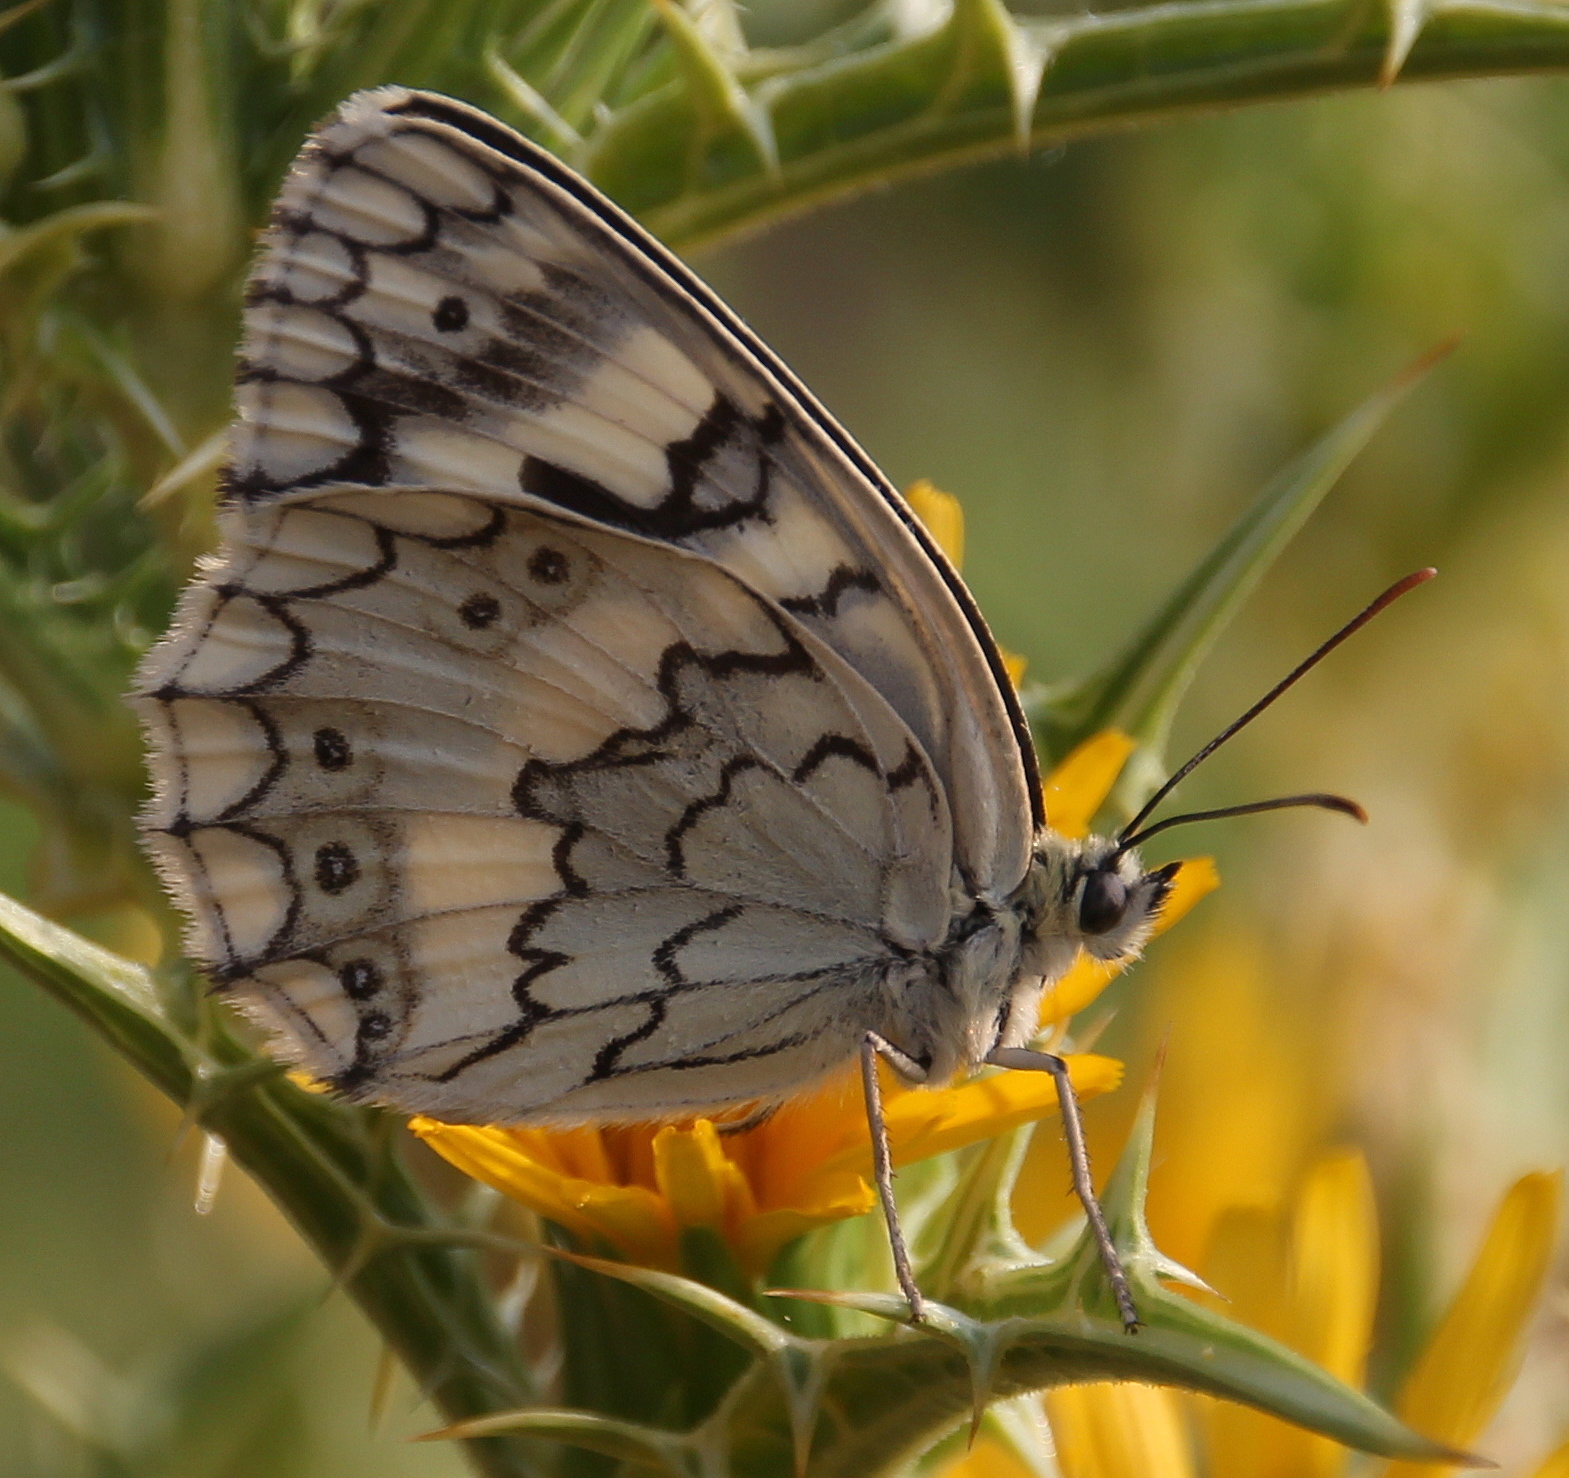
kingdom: Animalia
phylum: Arthropoda
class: Insecta
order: Lepidoptera
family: Nymphalidae
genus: Melanargia
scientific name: Melanargia larissa
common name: Balkan marbled white
